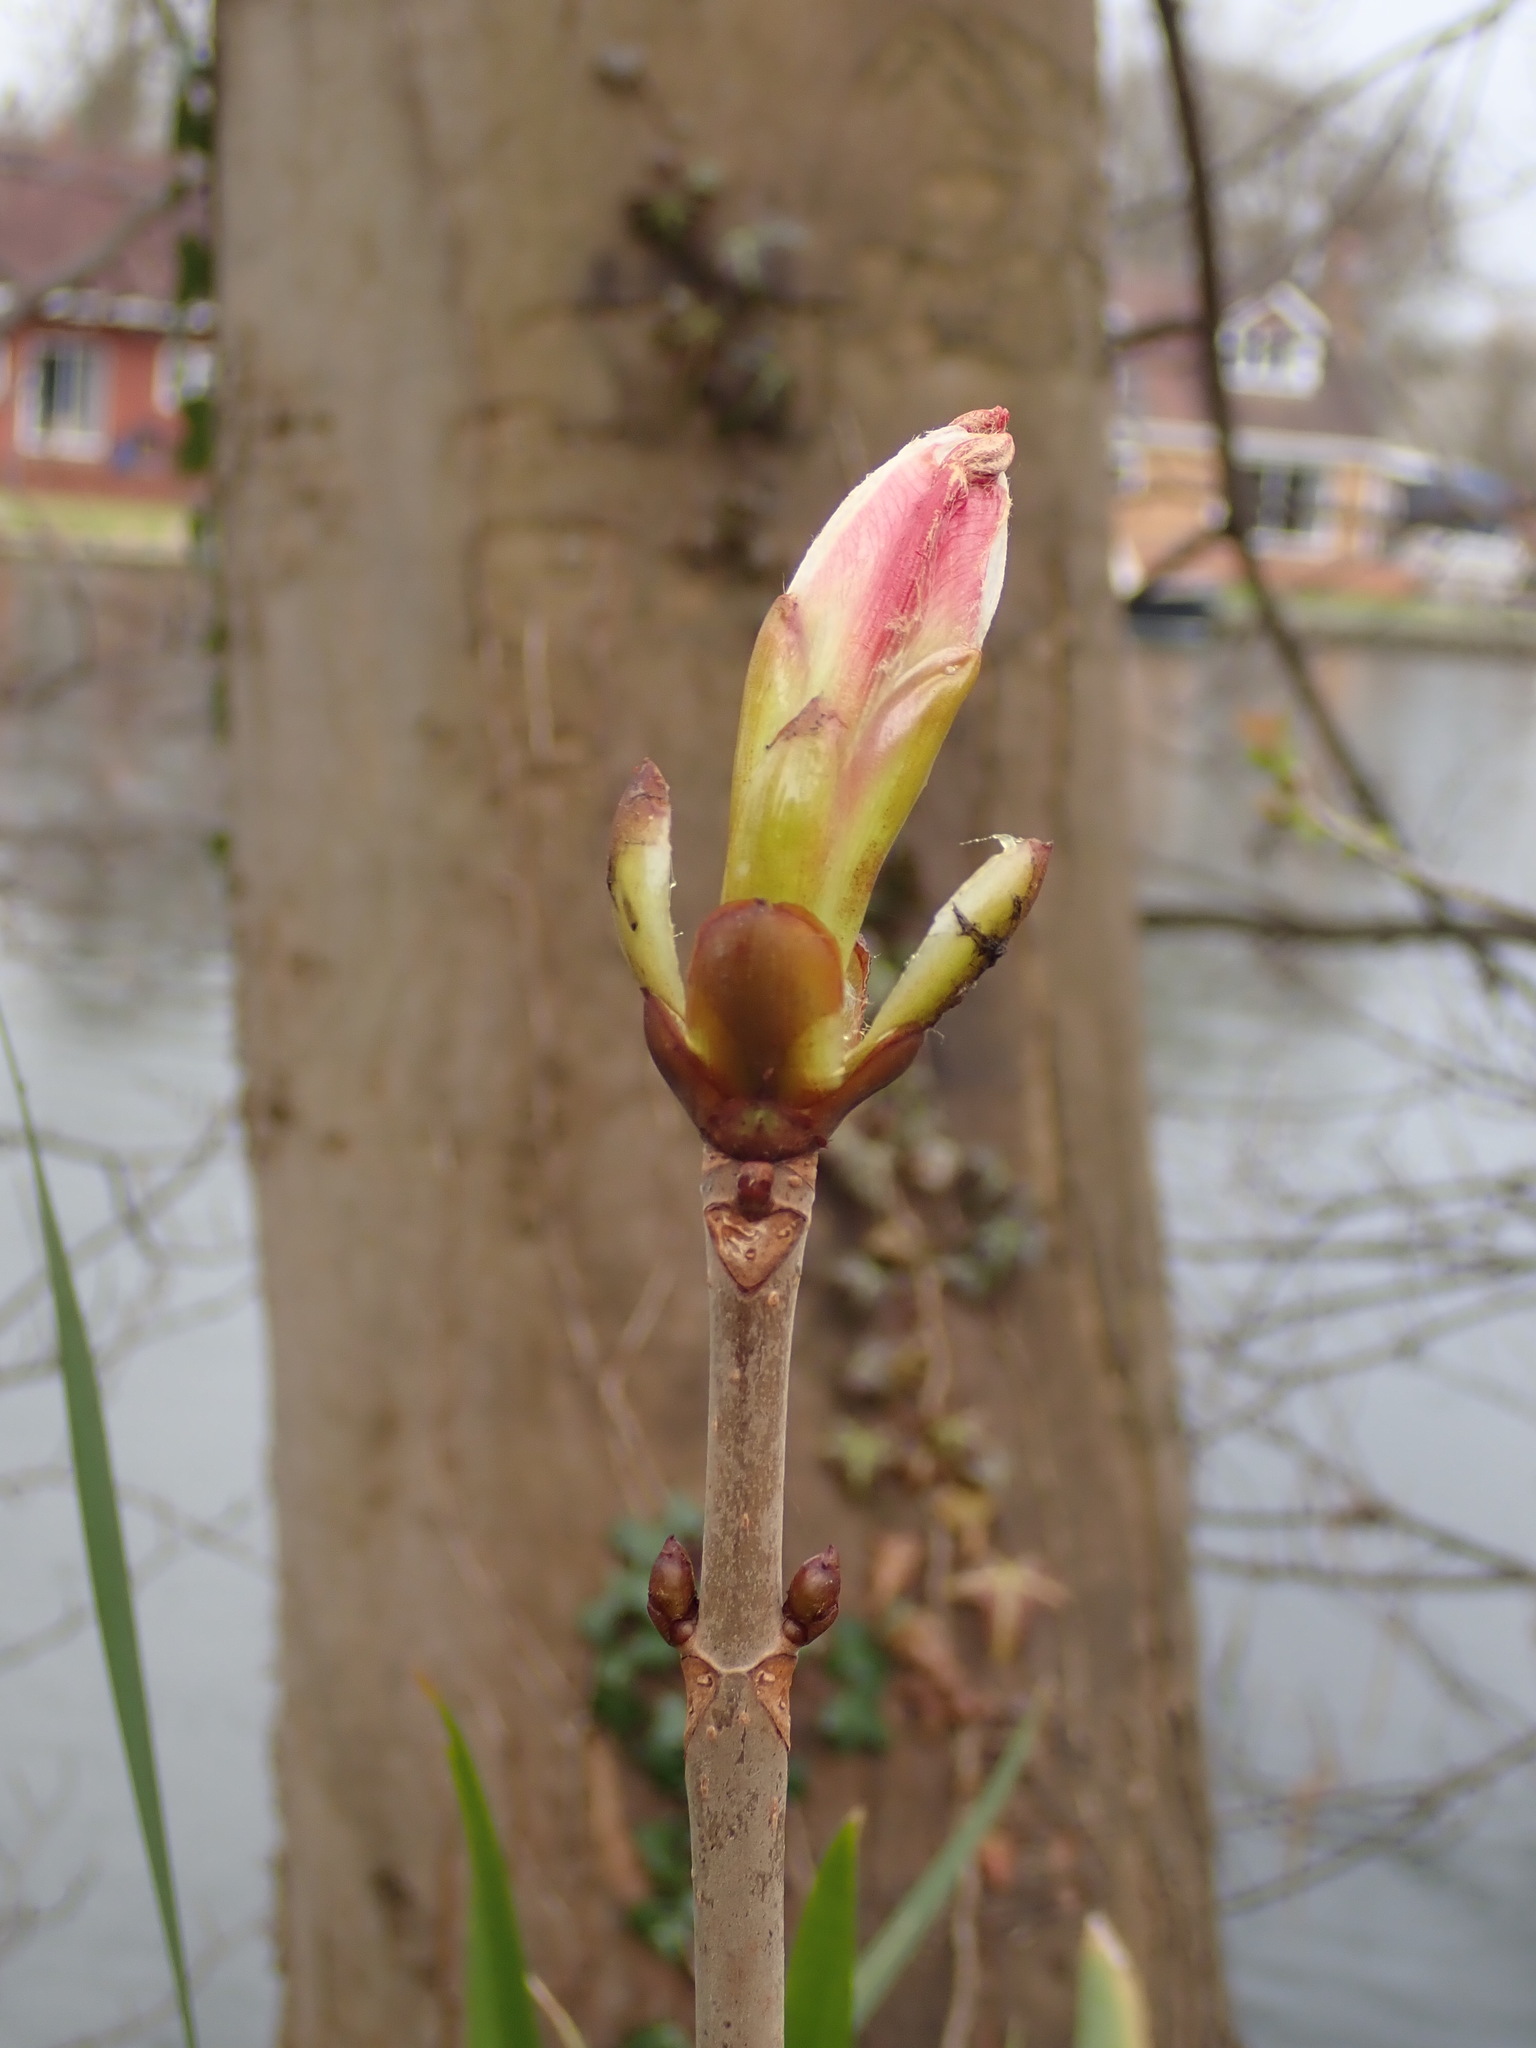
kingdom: Plantae
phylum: Tracheophyta
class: Magnoliopsida
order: Sapindales
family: Sapindaceae
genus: Aesculus
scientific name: Aesculus hippocastanum
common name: Horse-chestnut
